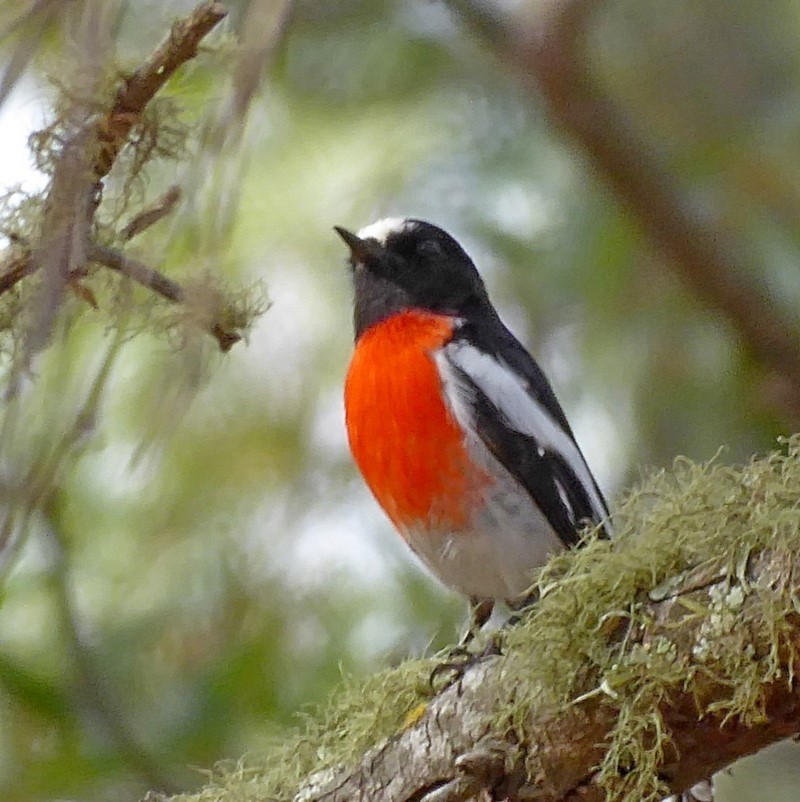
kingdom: Animalia
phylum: Chordata
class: Aves
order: Passeriformes
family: Petroicidae
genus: Petroica
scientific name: Petroica boodang
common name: Scarlet robin
